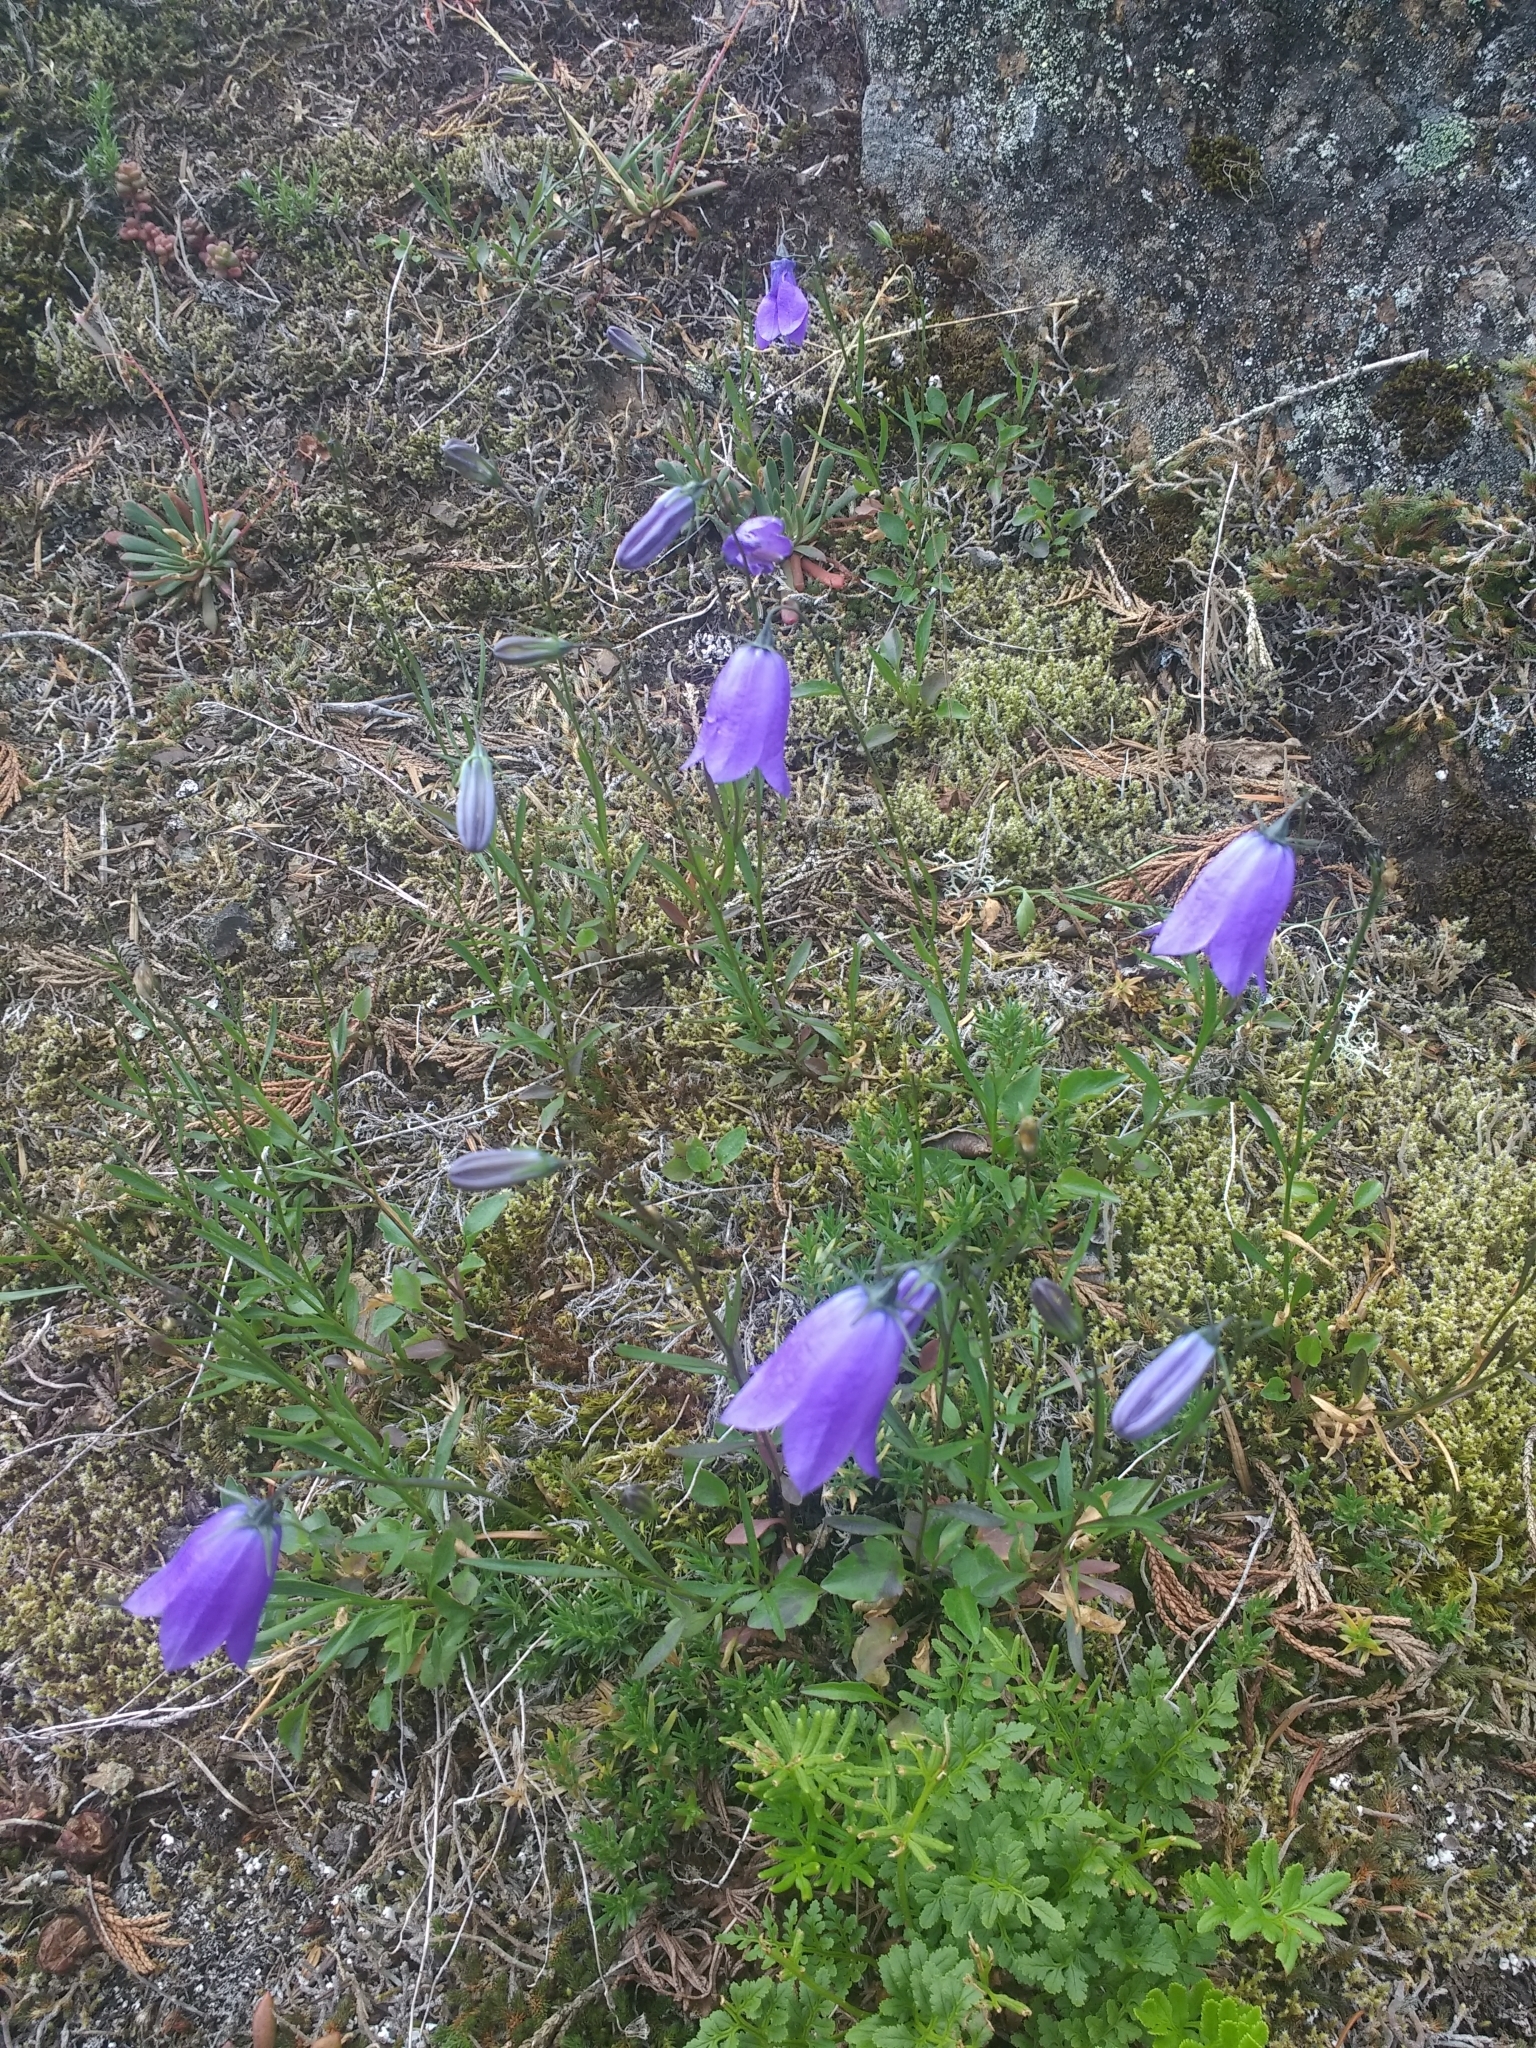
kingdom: Plantae
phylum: Tracheophyta
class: Magnoliopsida
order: Asterales
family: Campanulaceae
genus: Campanula
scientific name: Campanula alaskana
